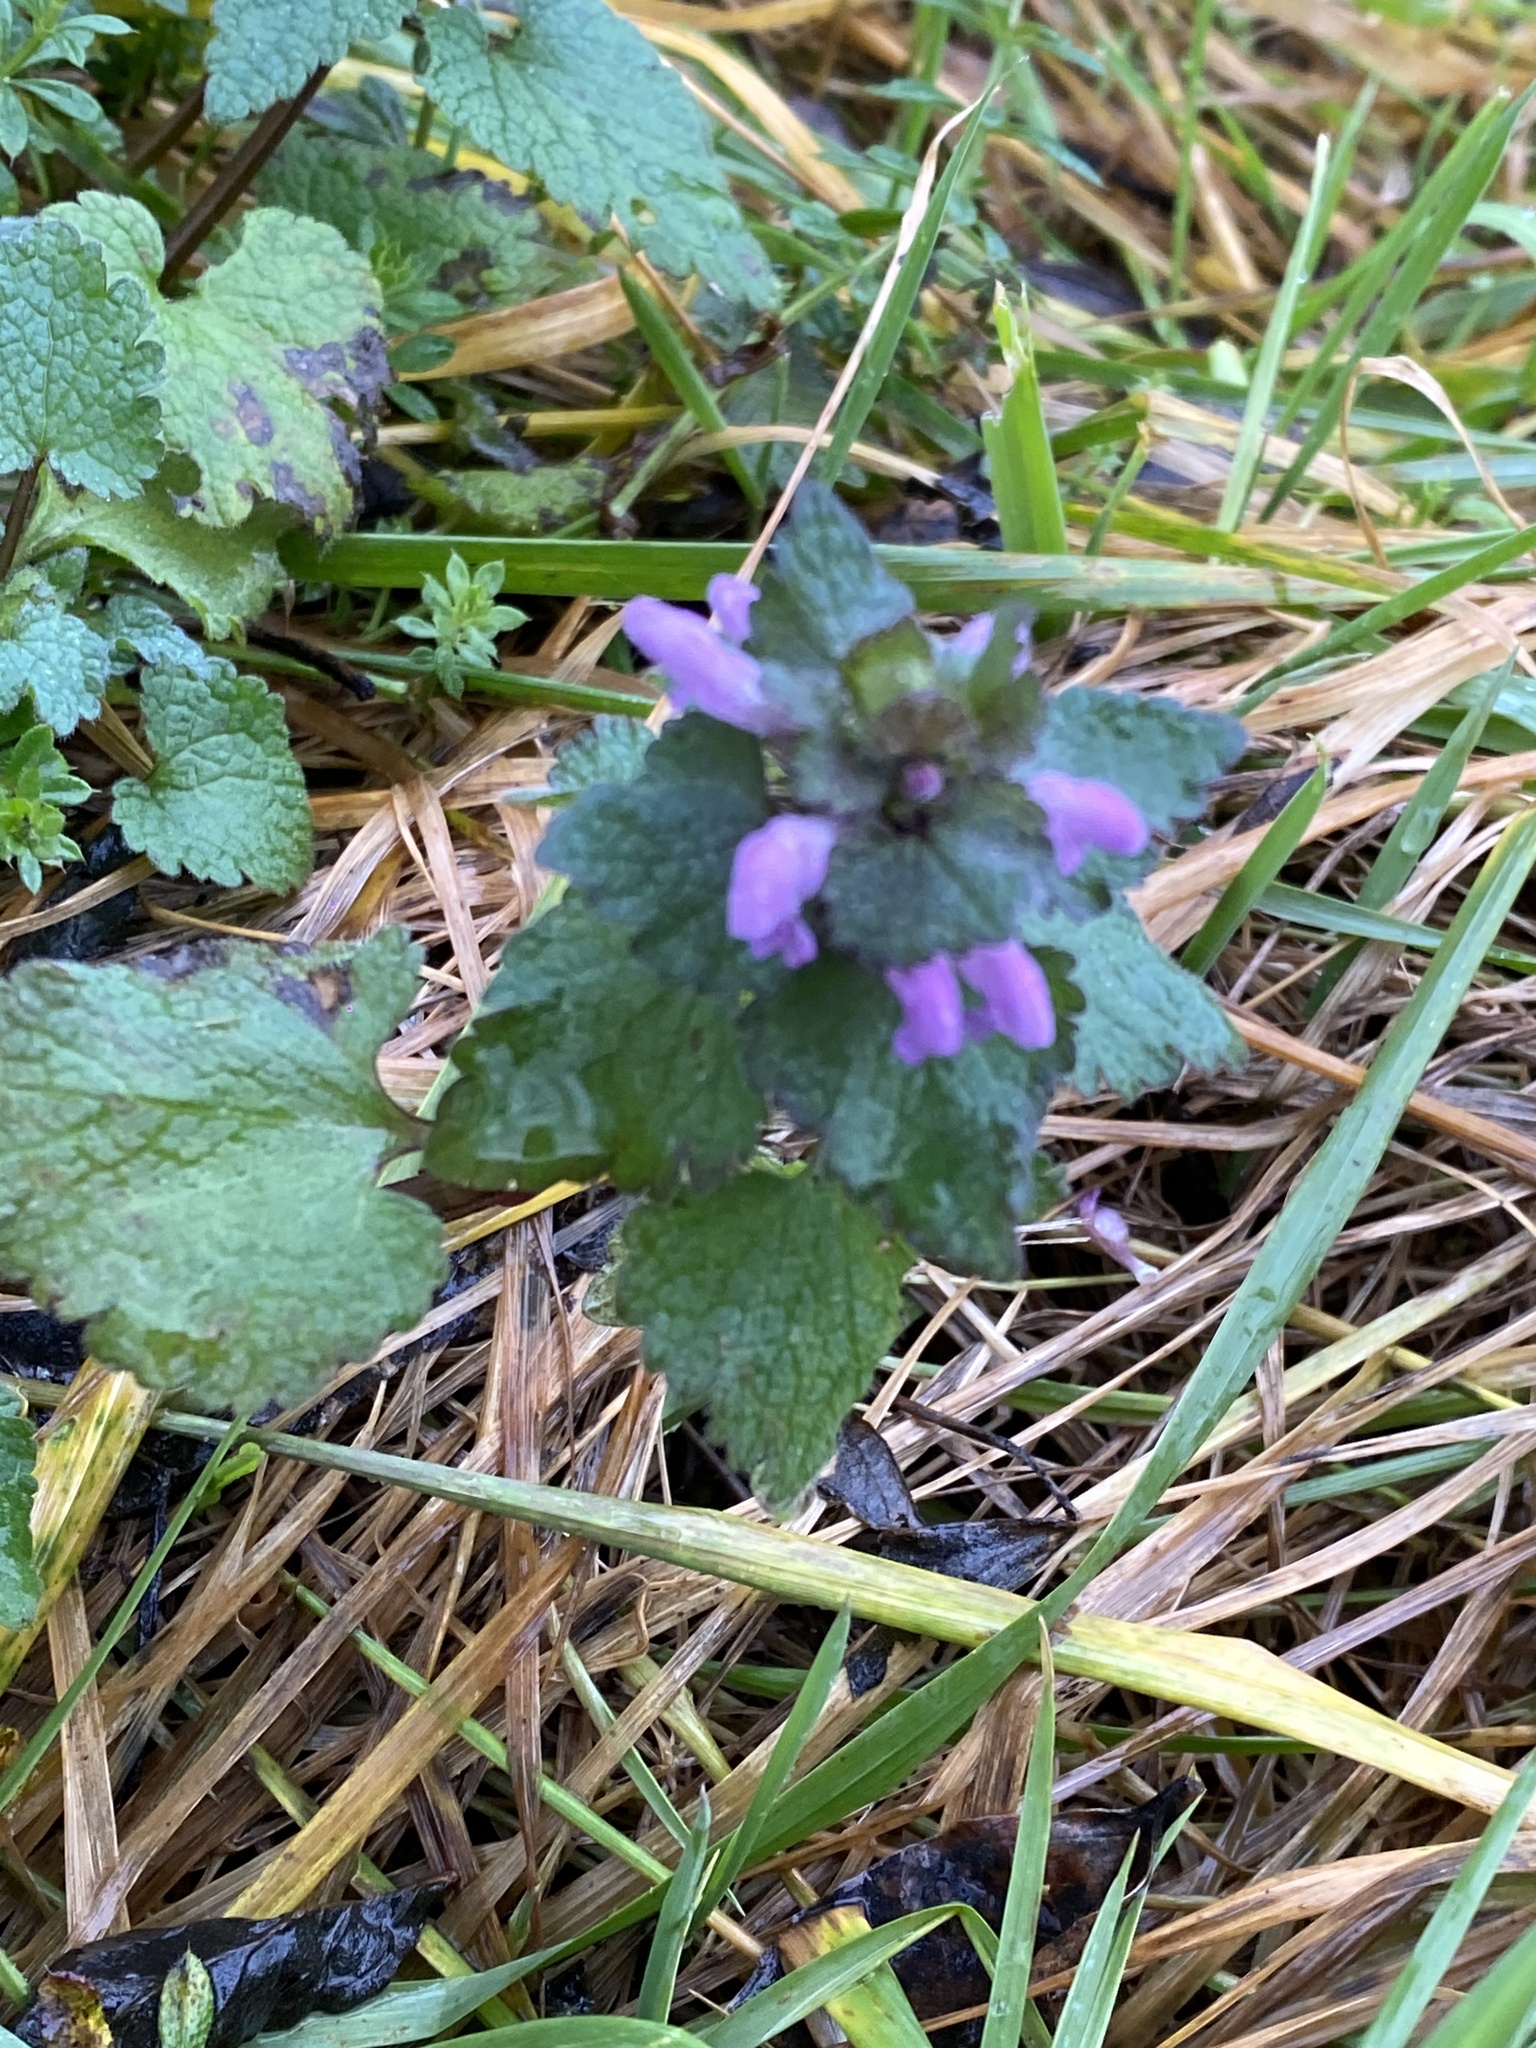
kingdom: Plantae
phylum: Tracheophyta
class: Magnoliopsida
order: Lamiales
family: Lamiaceae
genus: Lamium
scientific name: Lamium purpureum
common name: Red dead-nettle
